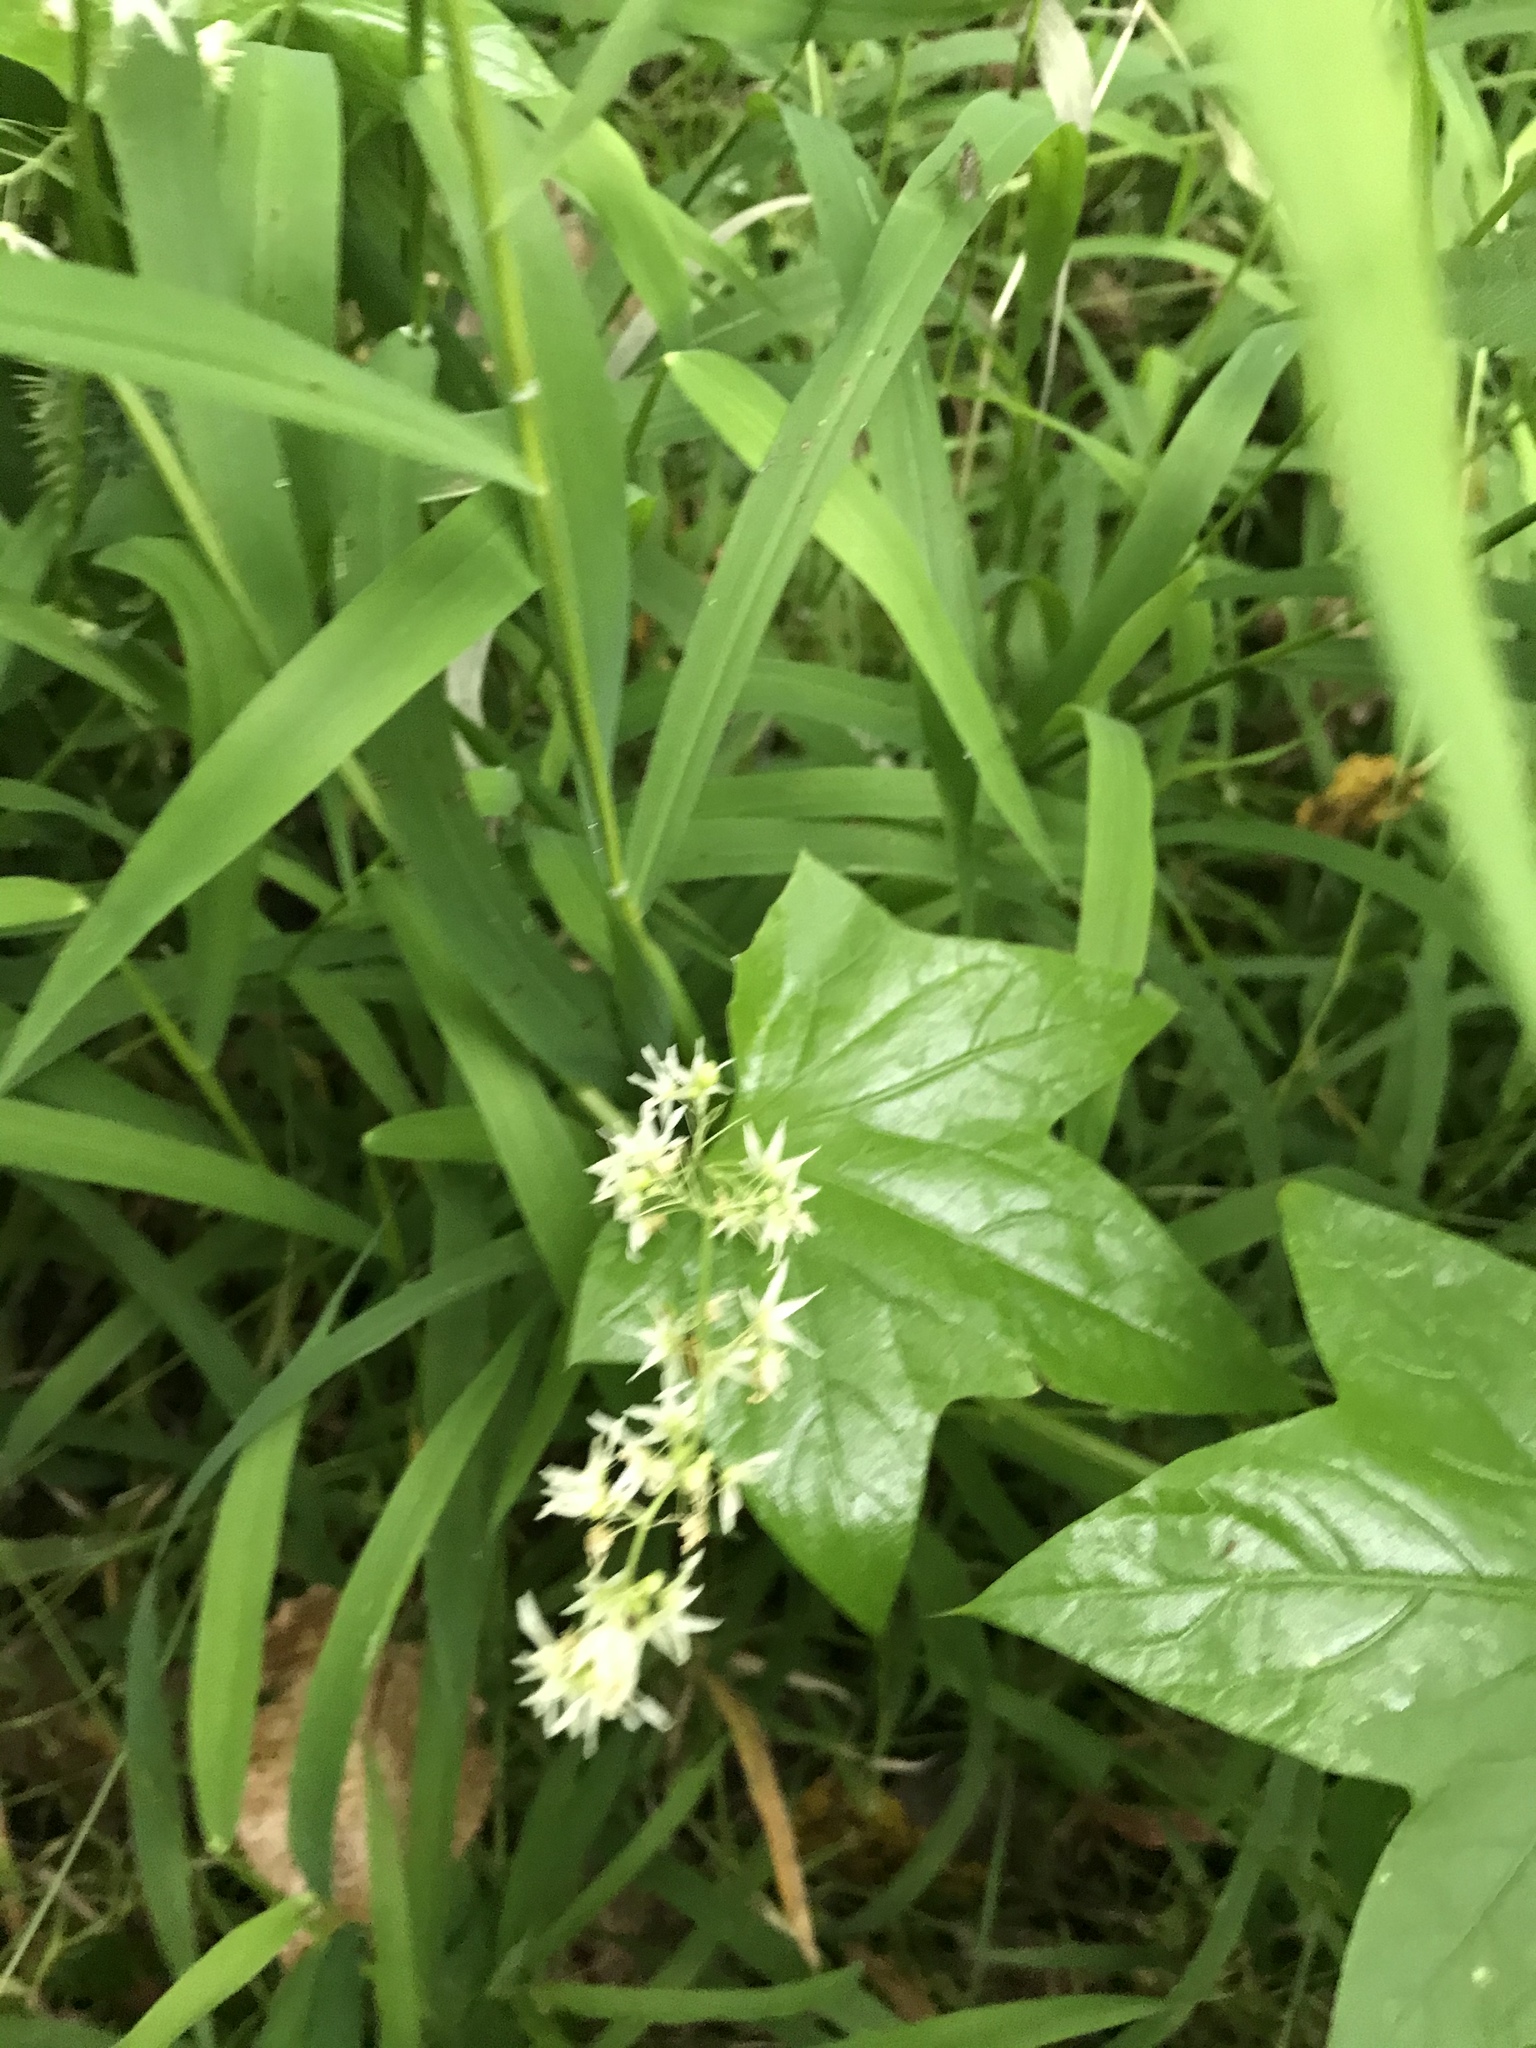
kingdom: Plantae
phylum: Tracheophyta
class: Magnoliopsida
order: Cucurbitales
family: Cucurbitaceae
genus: Echinocystis
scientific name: Echinocystis lobata
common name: Wild cucumber
